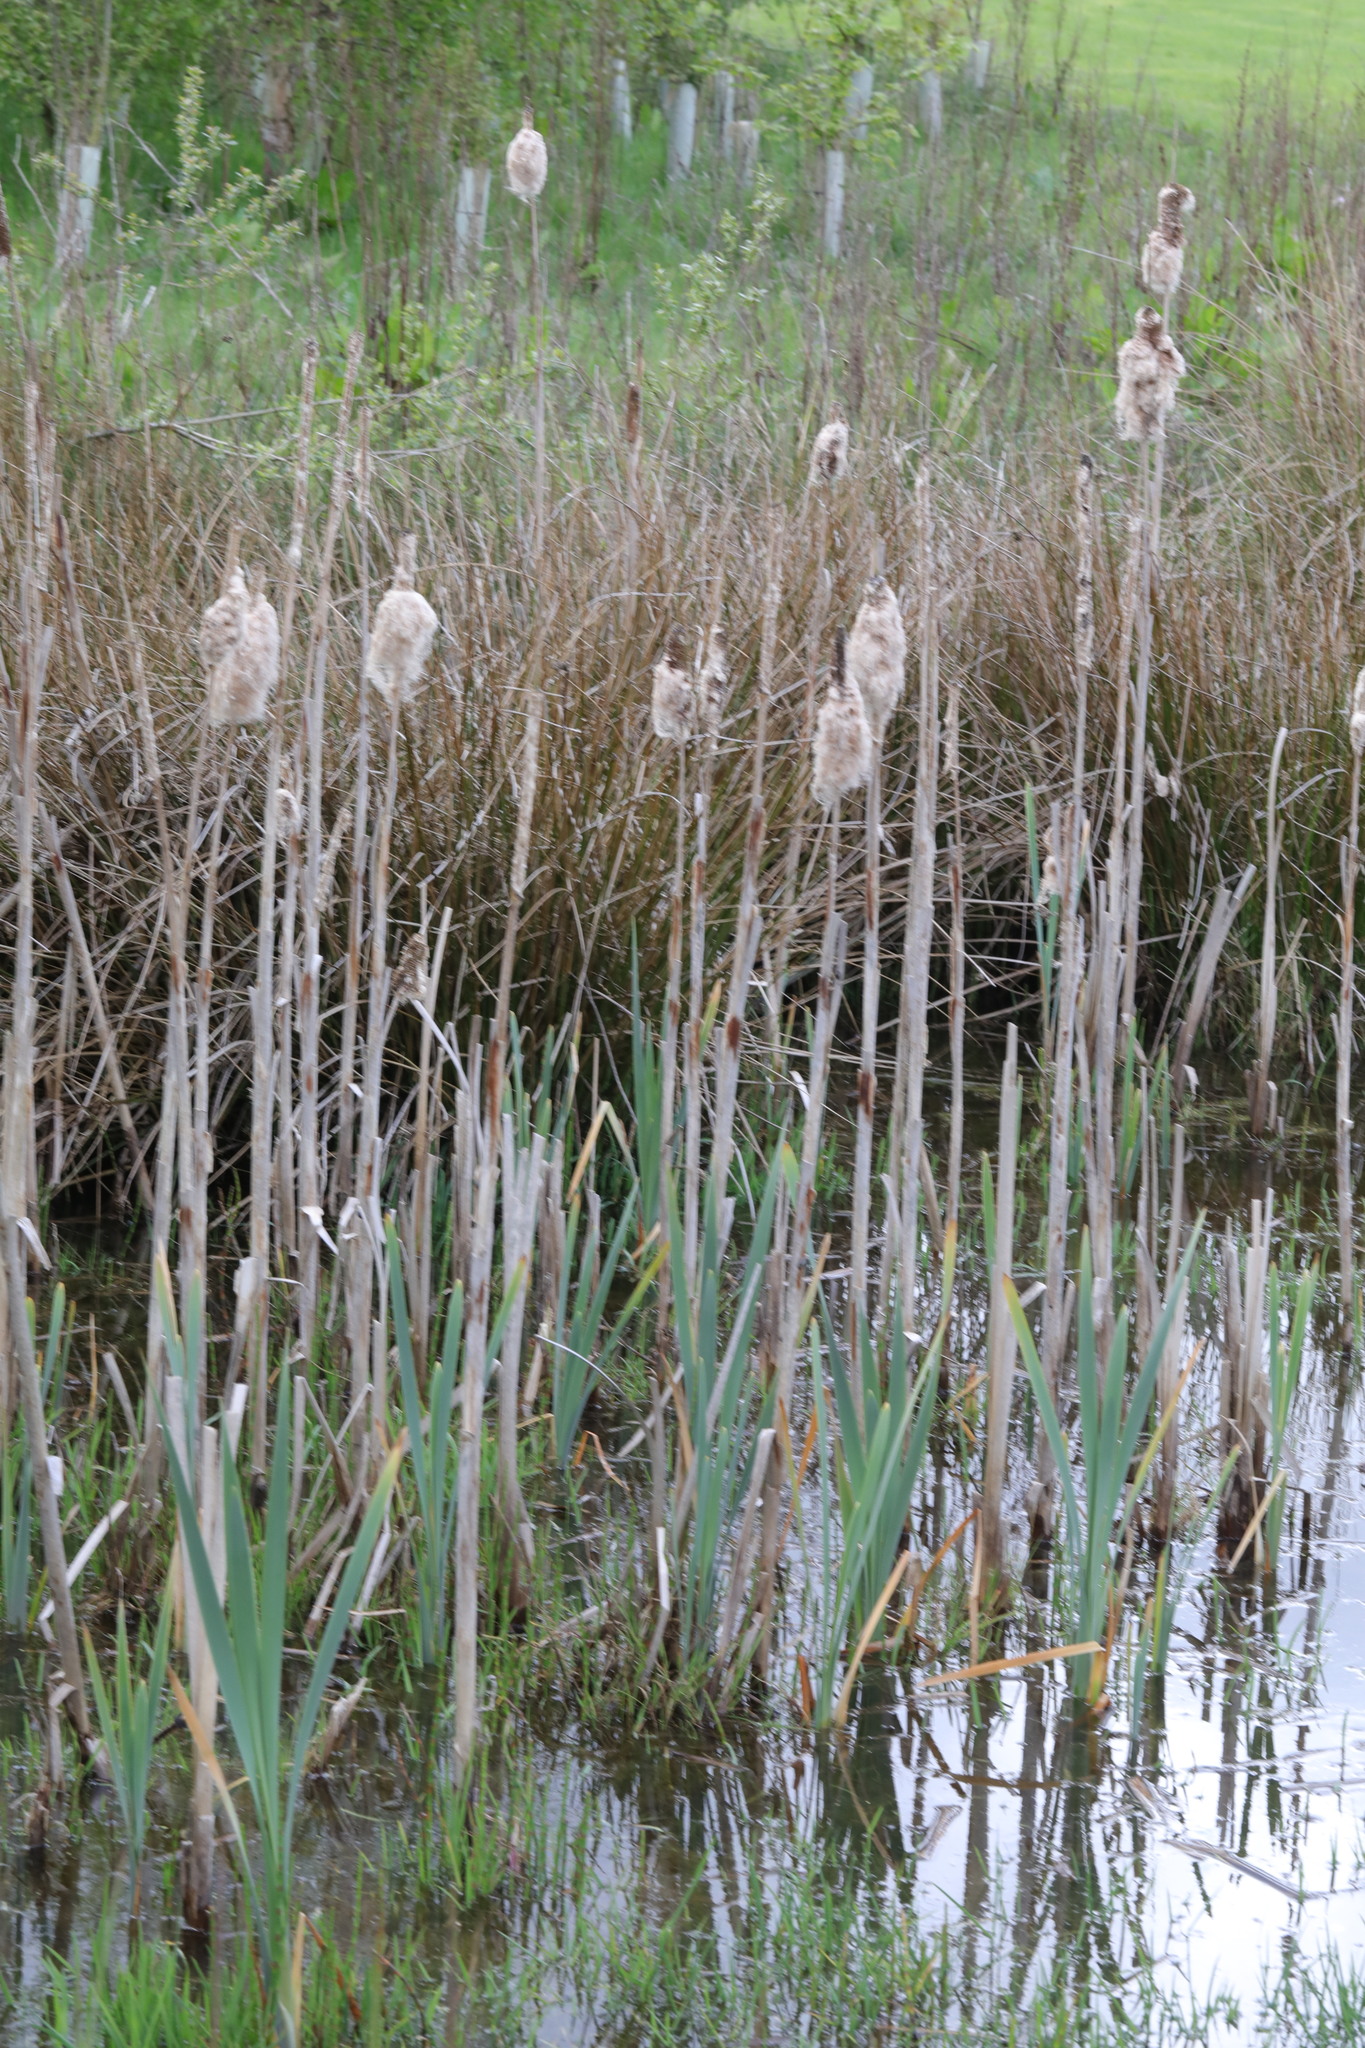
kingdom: Plantae
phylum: Tracheophyta
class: Liliopsida
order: Poales
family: Typhaceae
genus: Typha
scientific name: Typha latifolia
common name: Broadleaf cattail
